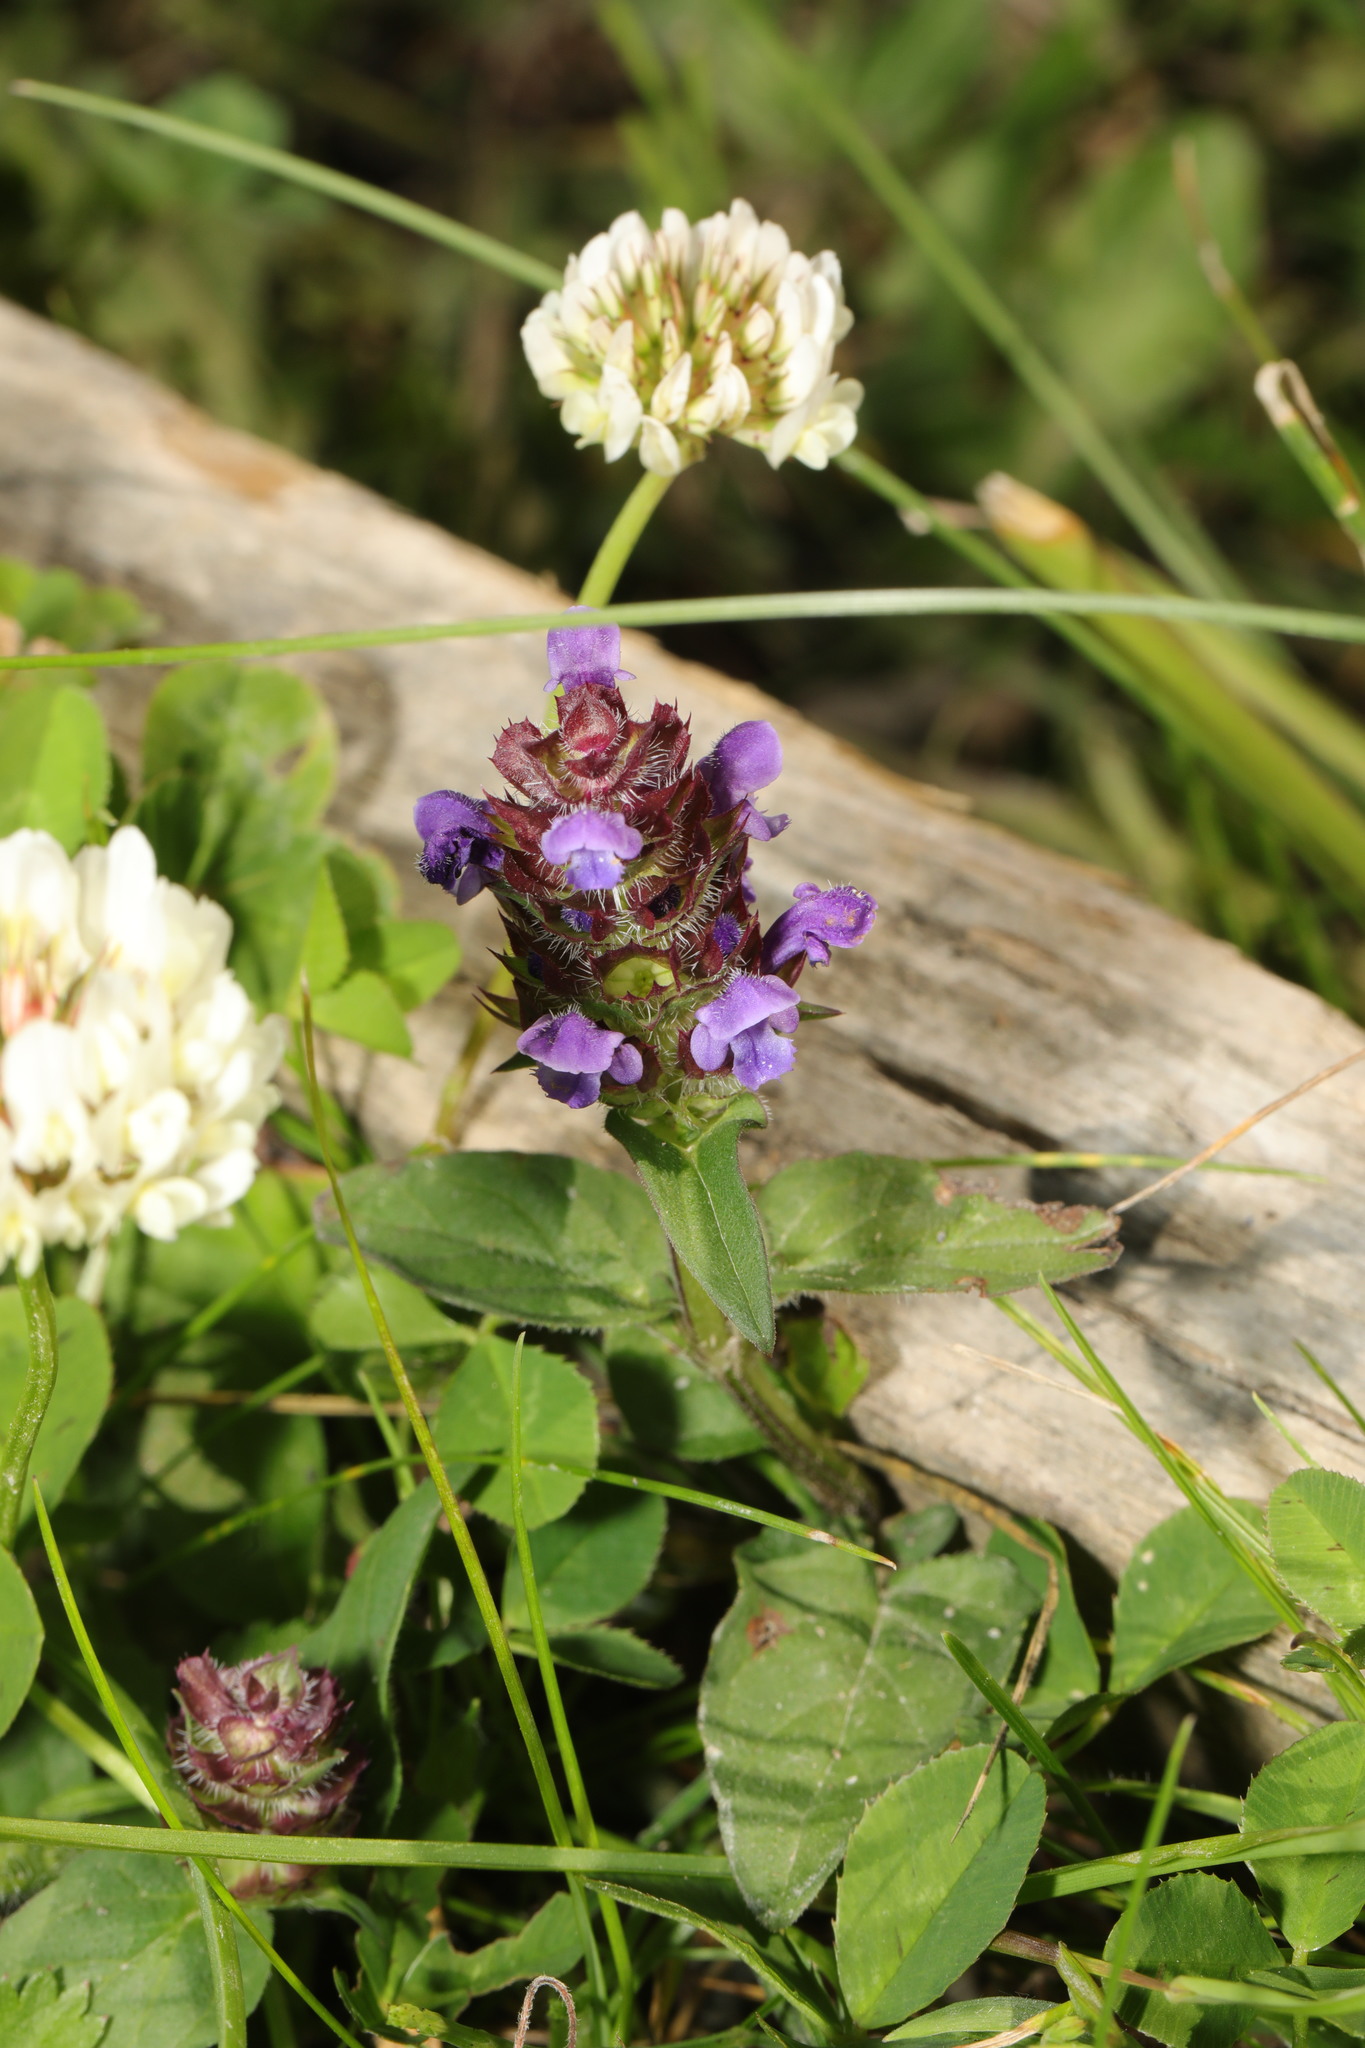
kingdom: Plantae
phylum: Tracheophyta
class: Magnoliopsida
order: Lamiales
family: Lamiaceae
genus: Prunella
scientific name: Prunella vulgaris
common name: Heal-all
